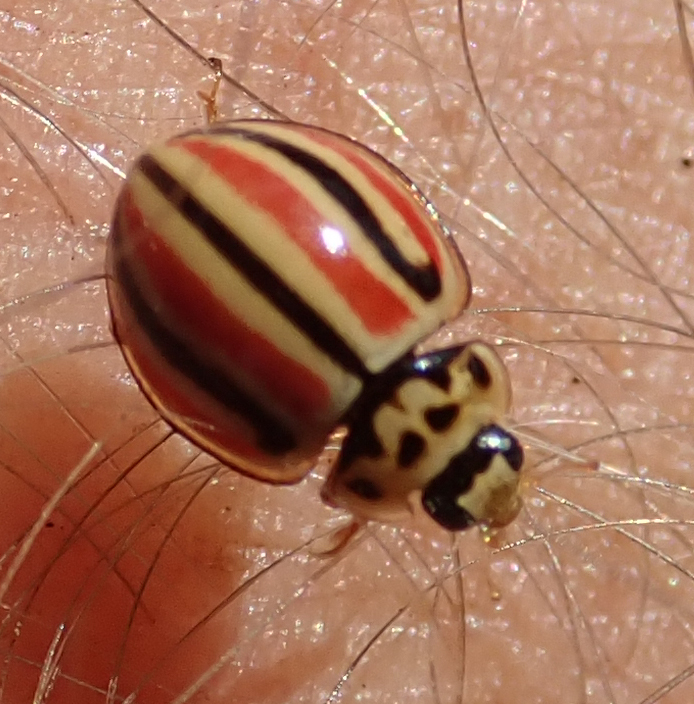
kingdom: Animalia
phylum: Arthropoda
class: Insecta
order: Coleoptera
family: Coccinellidae
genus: Declivitata
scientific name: Declivitata hamata
